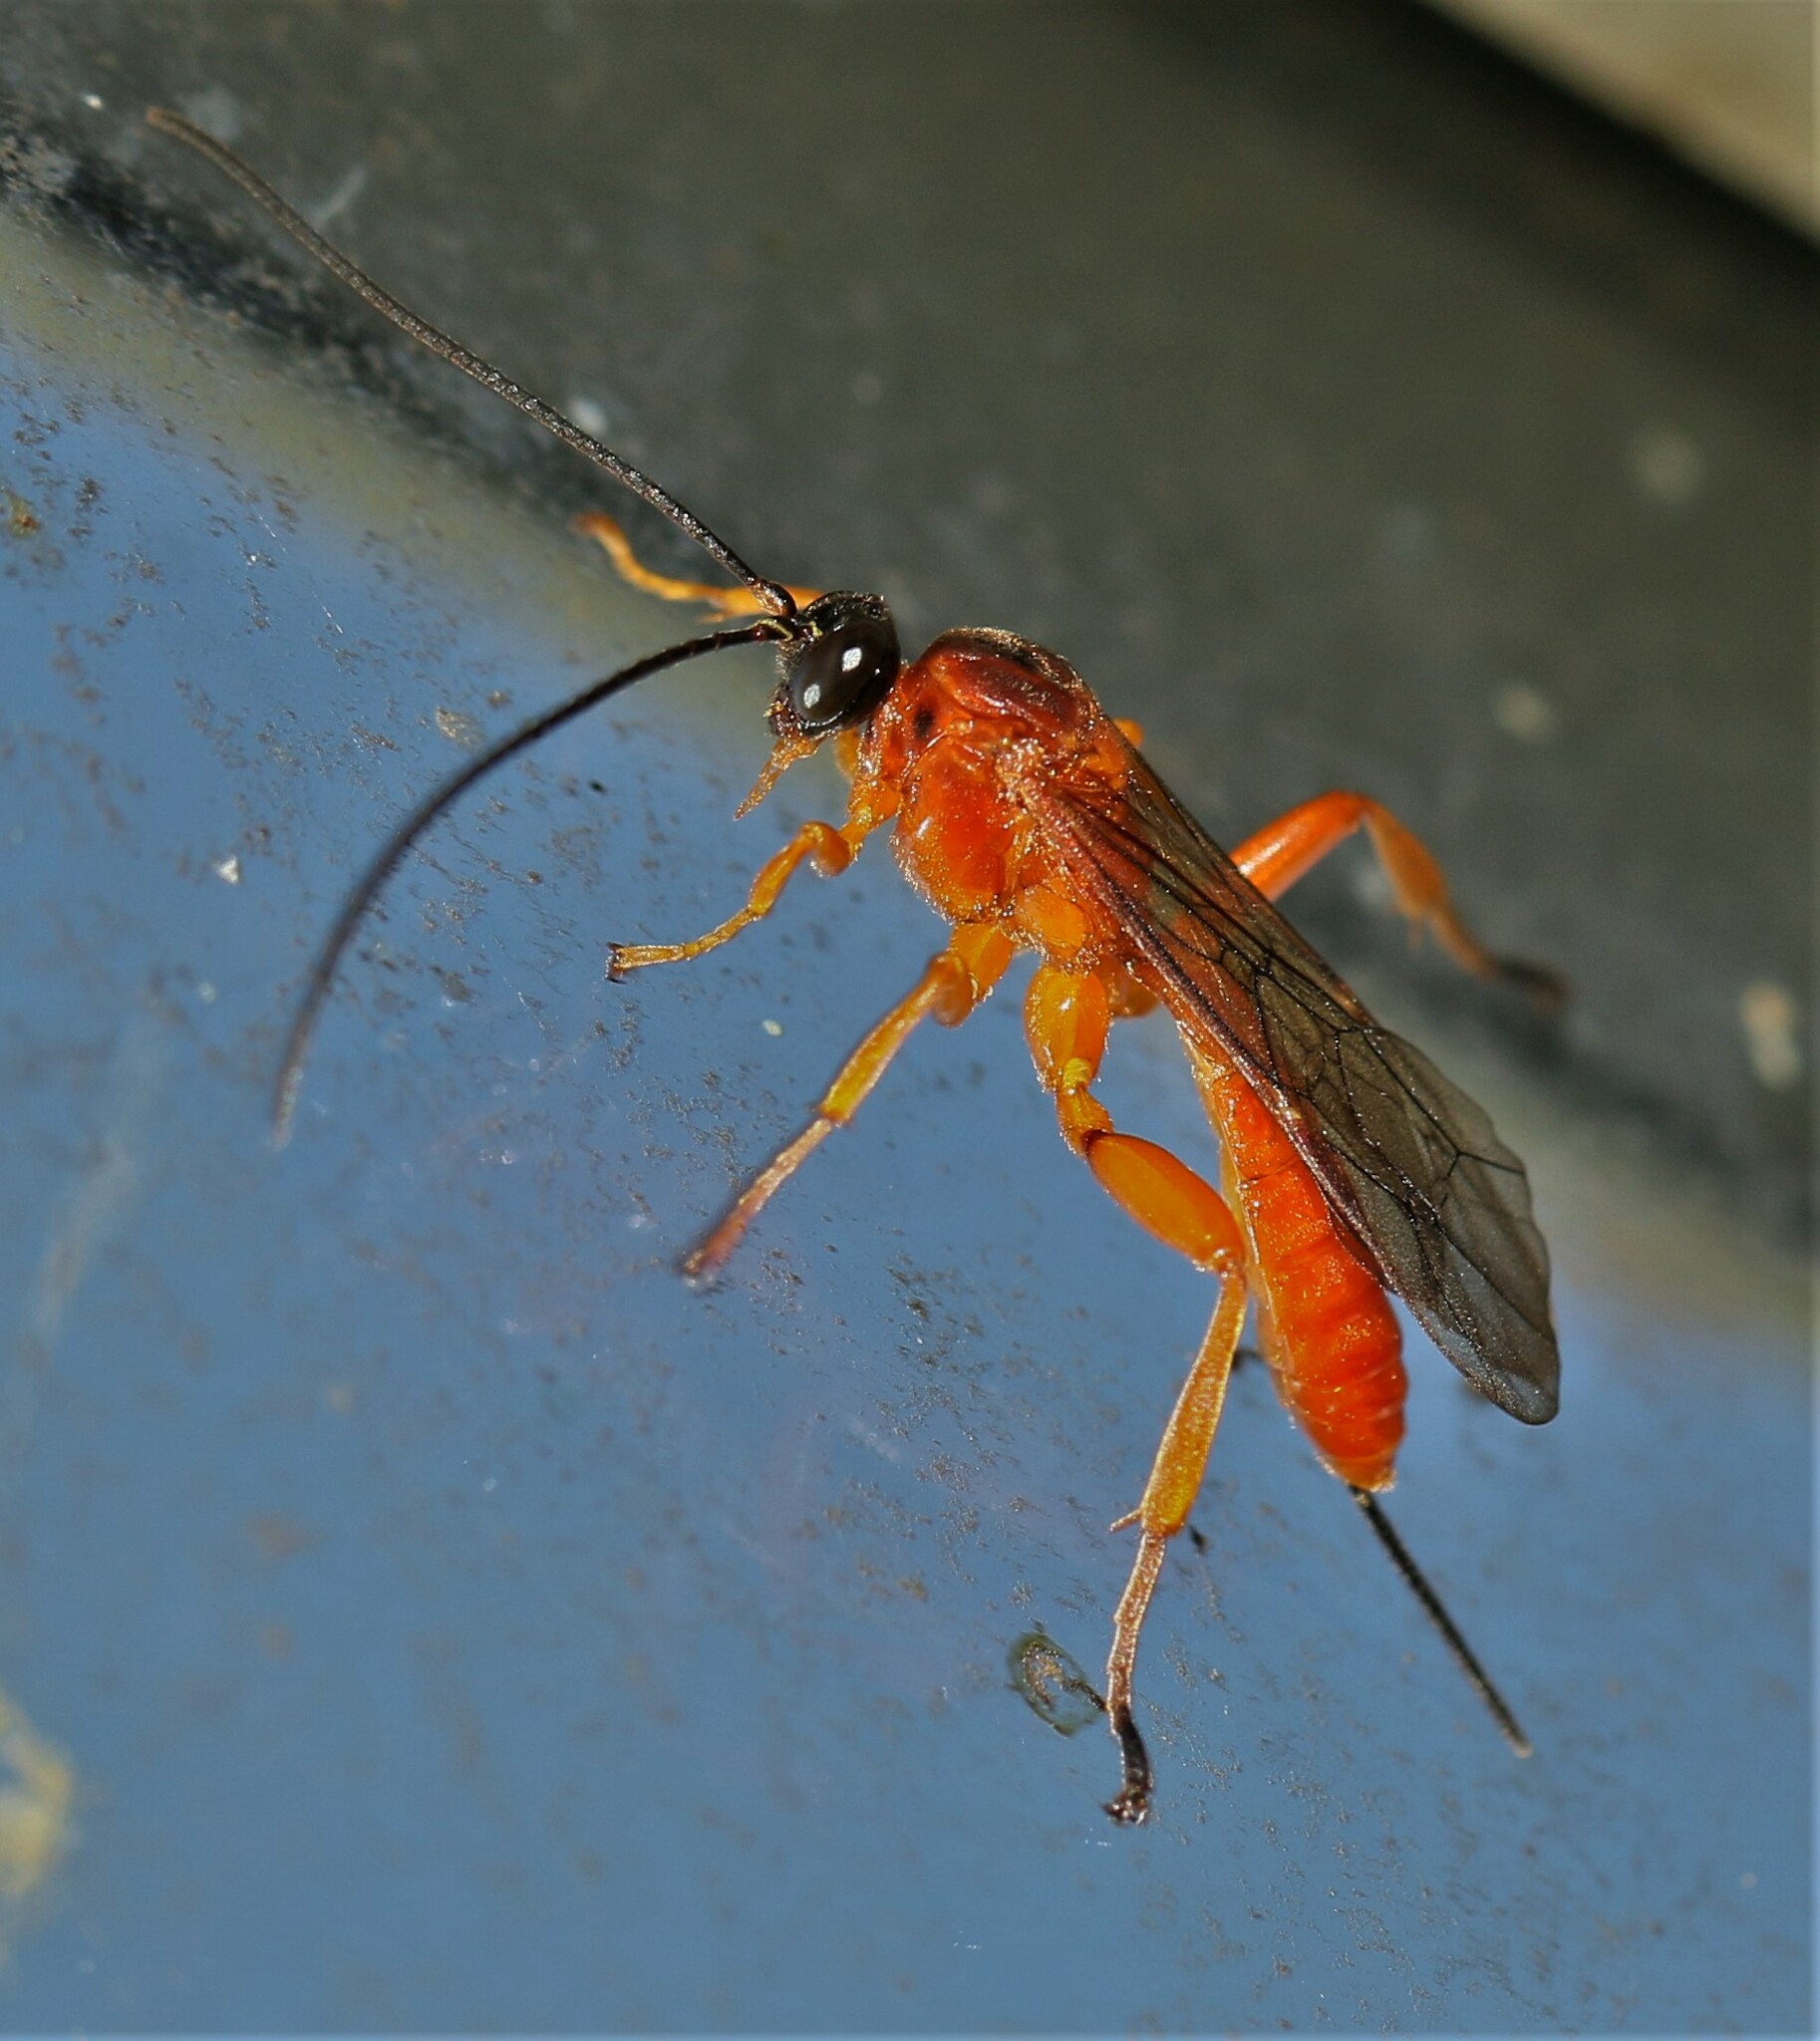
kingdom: Animalia
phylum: Arthropoda
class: Insecta
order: Hymenoptera
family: Ichneumonidae
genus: Theronia
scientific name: Theronia hilaris
